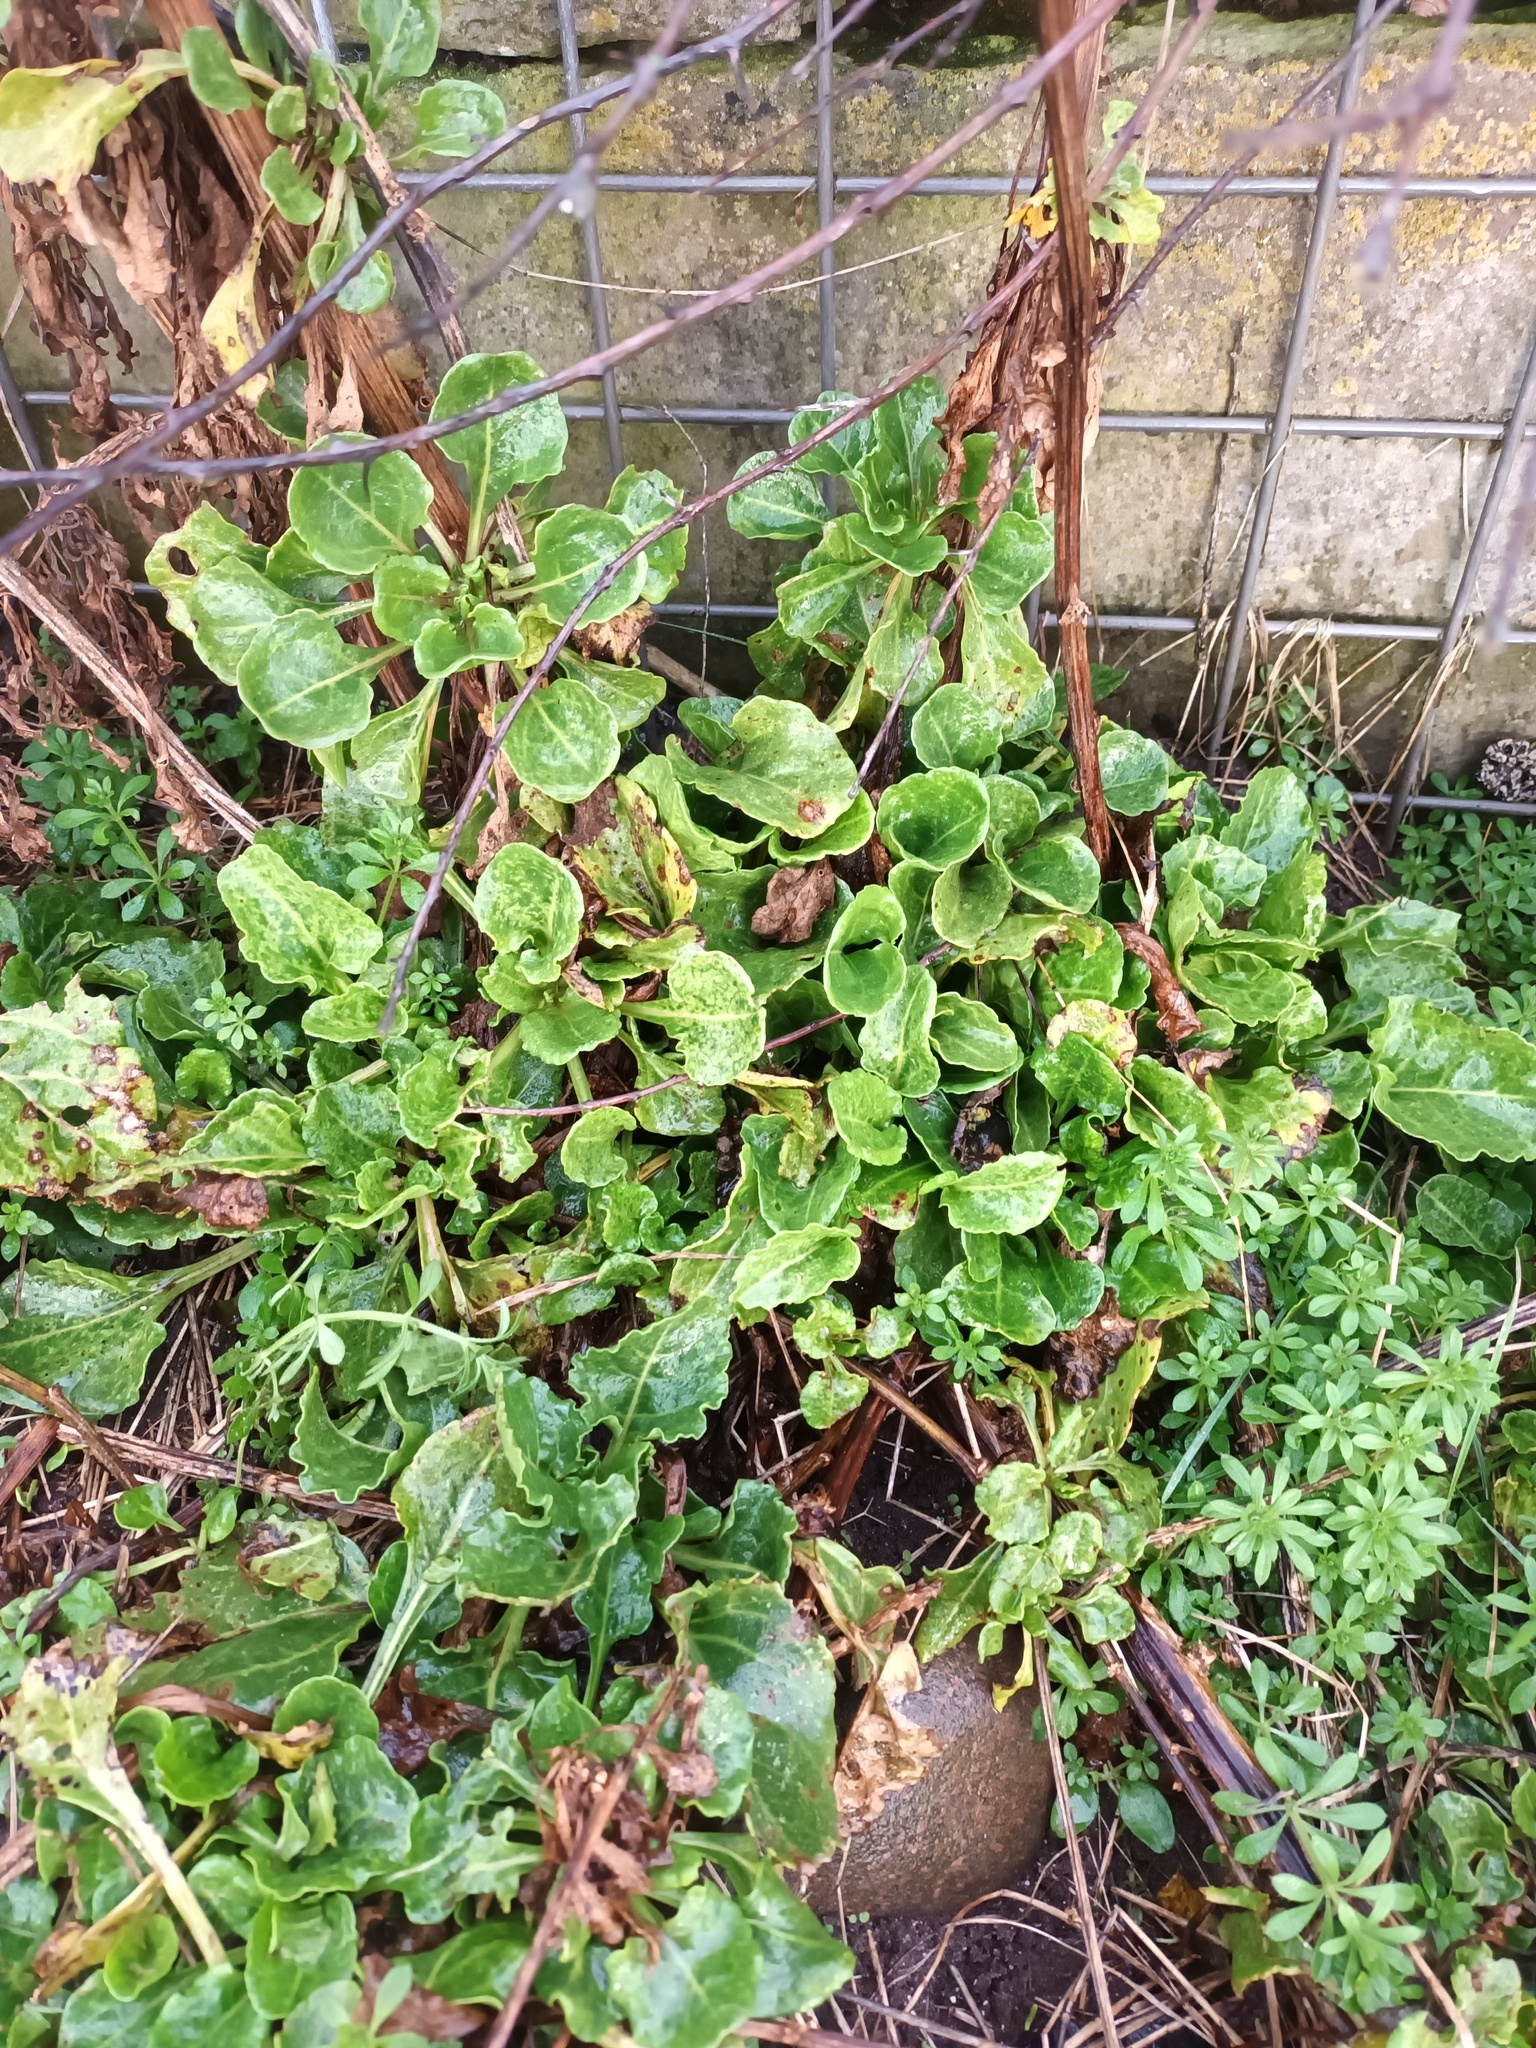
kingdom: Plantae
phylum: Tracheophyta
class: Magnoliopsida
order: Caryophyllales
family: Amaranthaceae
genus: Beta
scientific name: Beta vulgaris
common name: Beet
